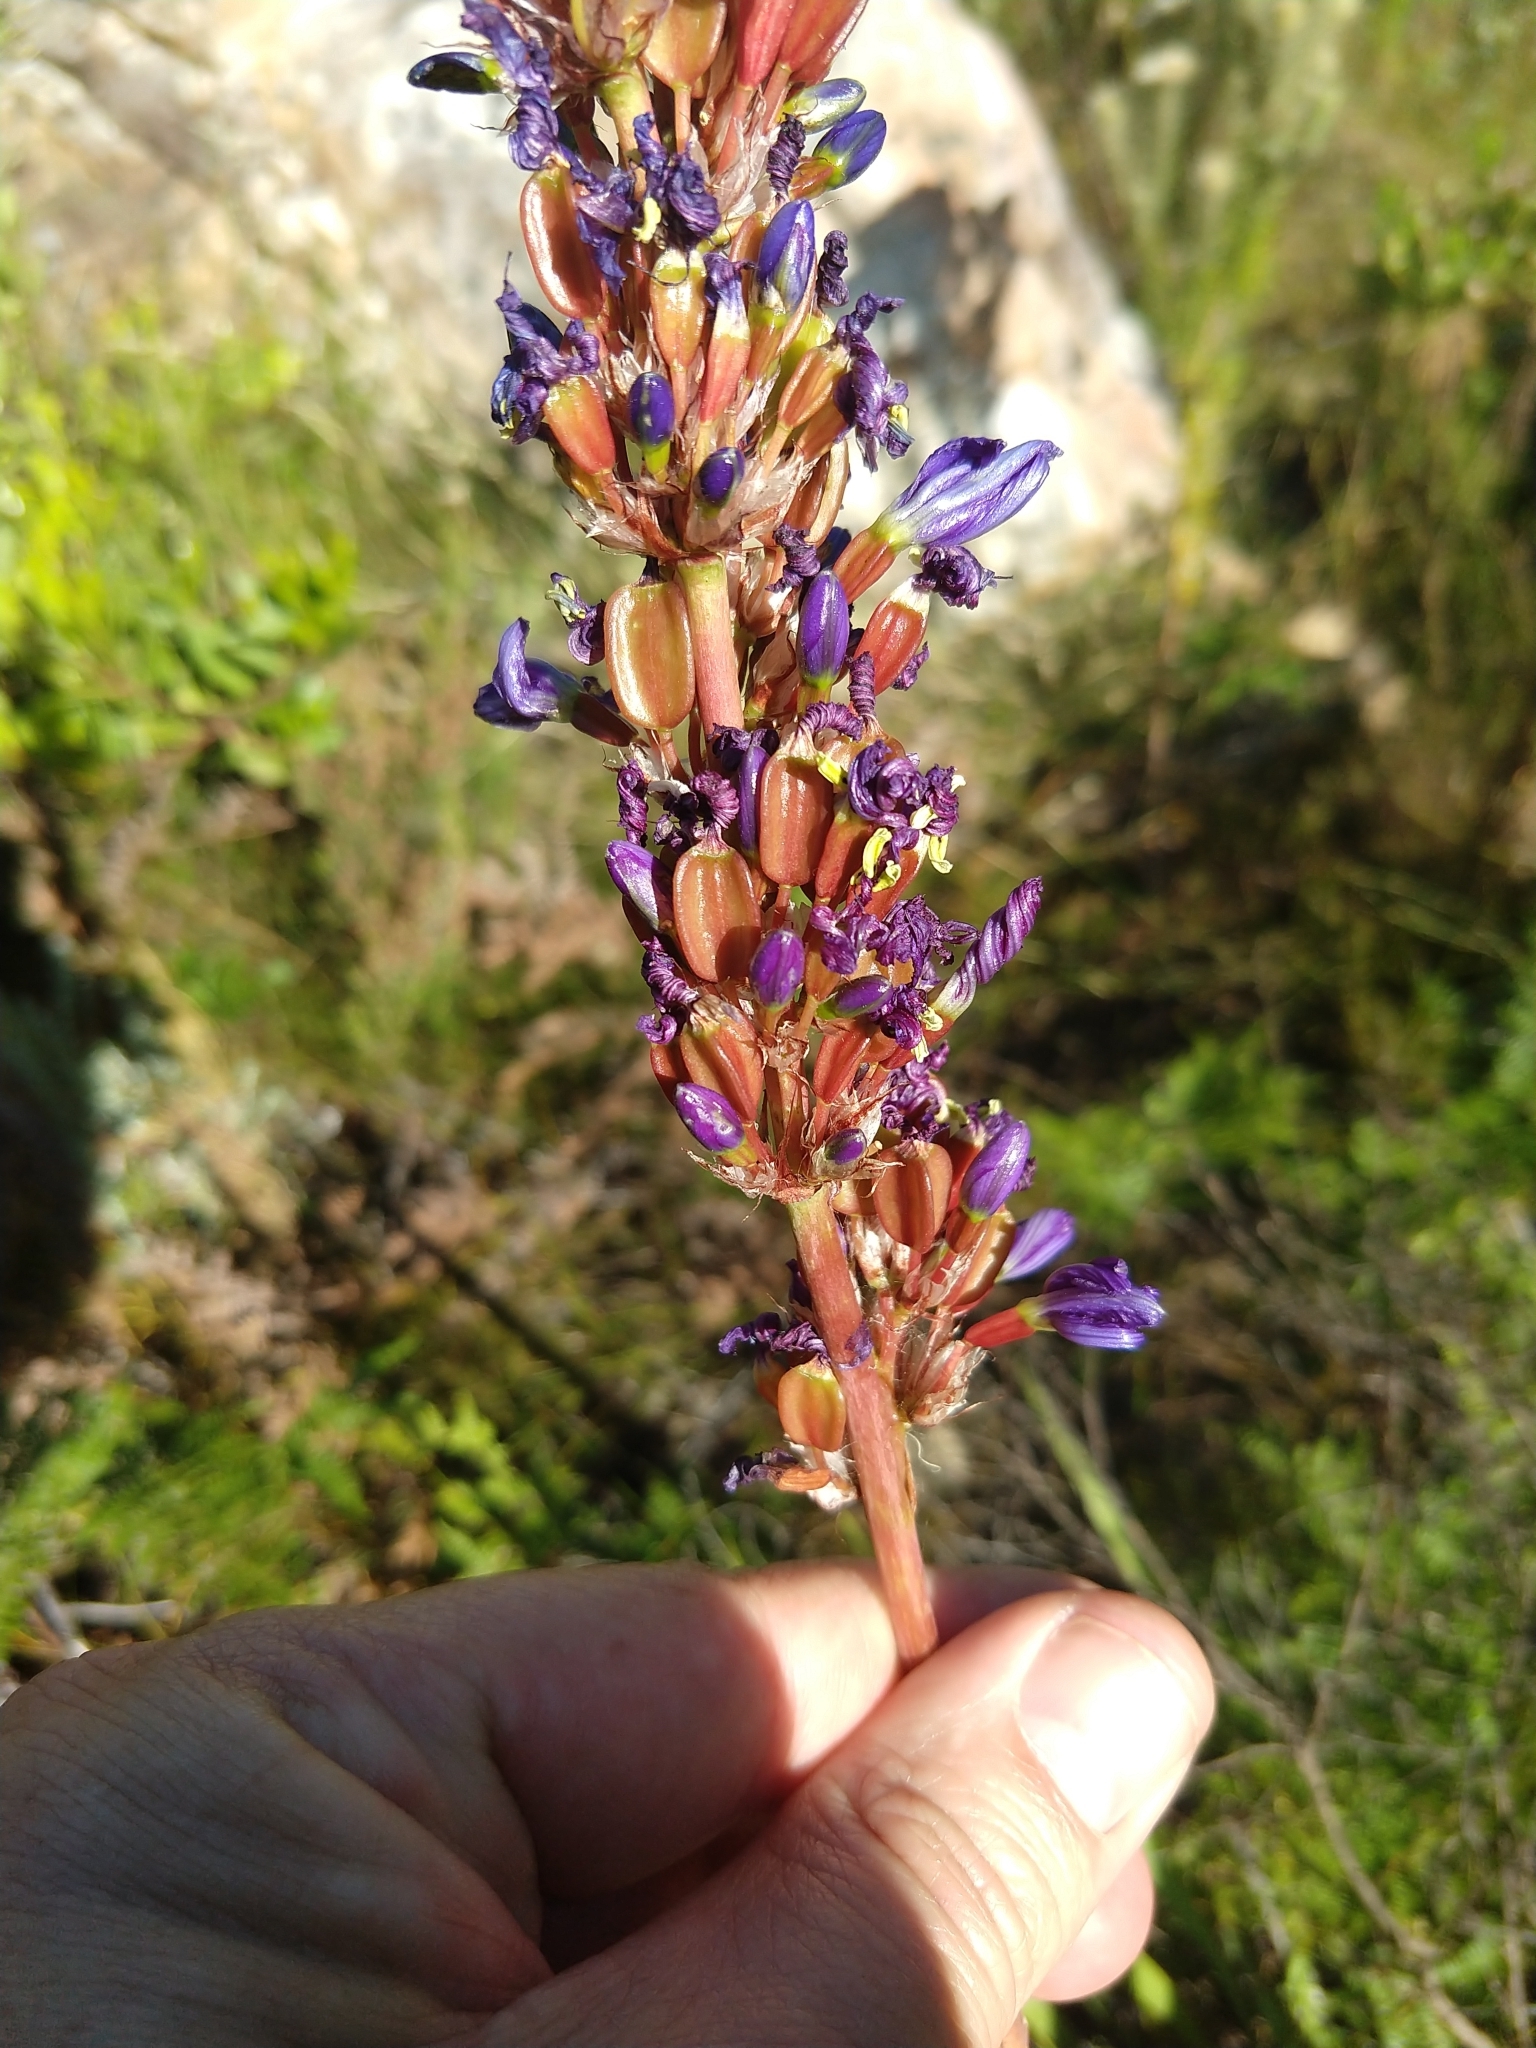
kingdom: Plantae
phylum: Tracheophyta
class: Liliopsida
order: Asparagales
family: Iridaceae
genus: Aristea
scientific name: Aristea capitata
